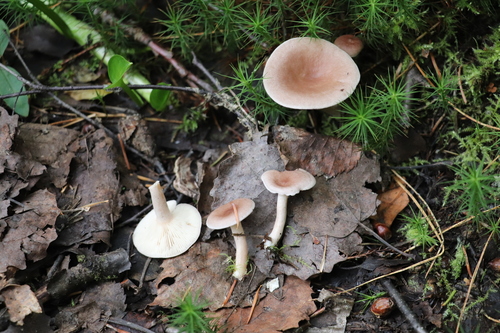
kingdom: Fungi
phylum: Basidiomycota
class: Agaricomycetes
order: Russulales
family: Russulaceae
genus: Lactarius
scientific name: Lactarius vietus
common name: Grey milk-cap
